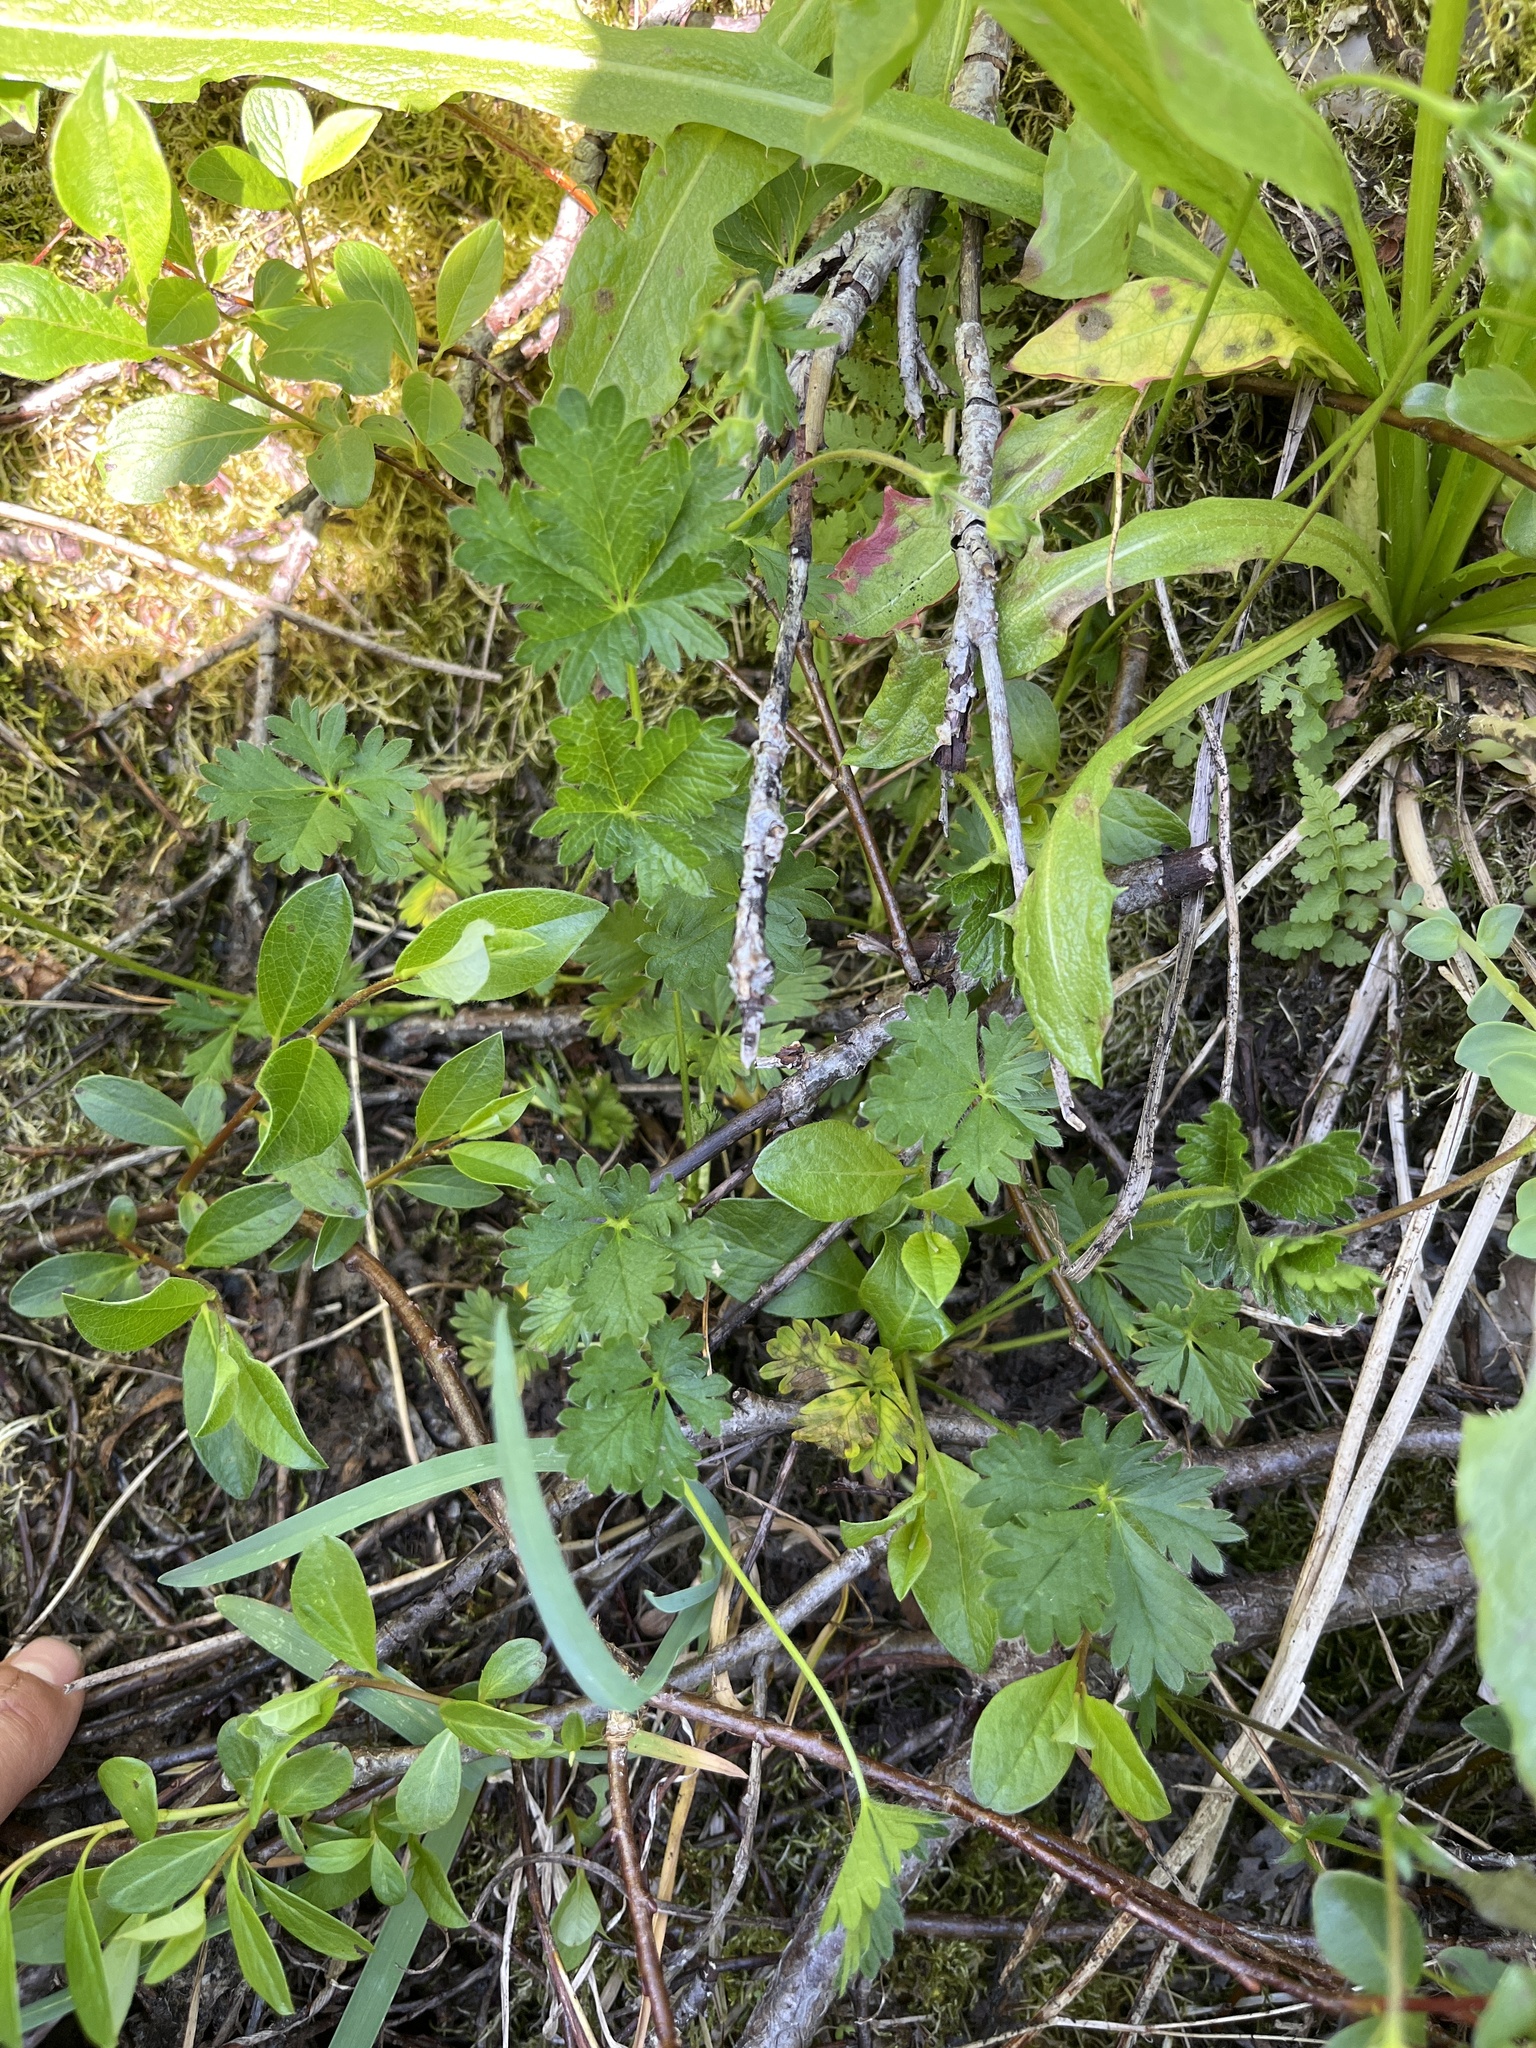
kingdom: Plantae
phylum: Tracheophyta
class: Magnoliopsida
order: Rosales
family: Rosaceae
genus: Potentilla
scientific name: Potentilla crantzii
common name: Alpine cinquefoil
